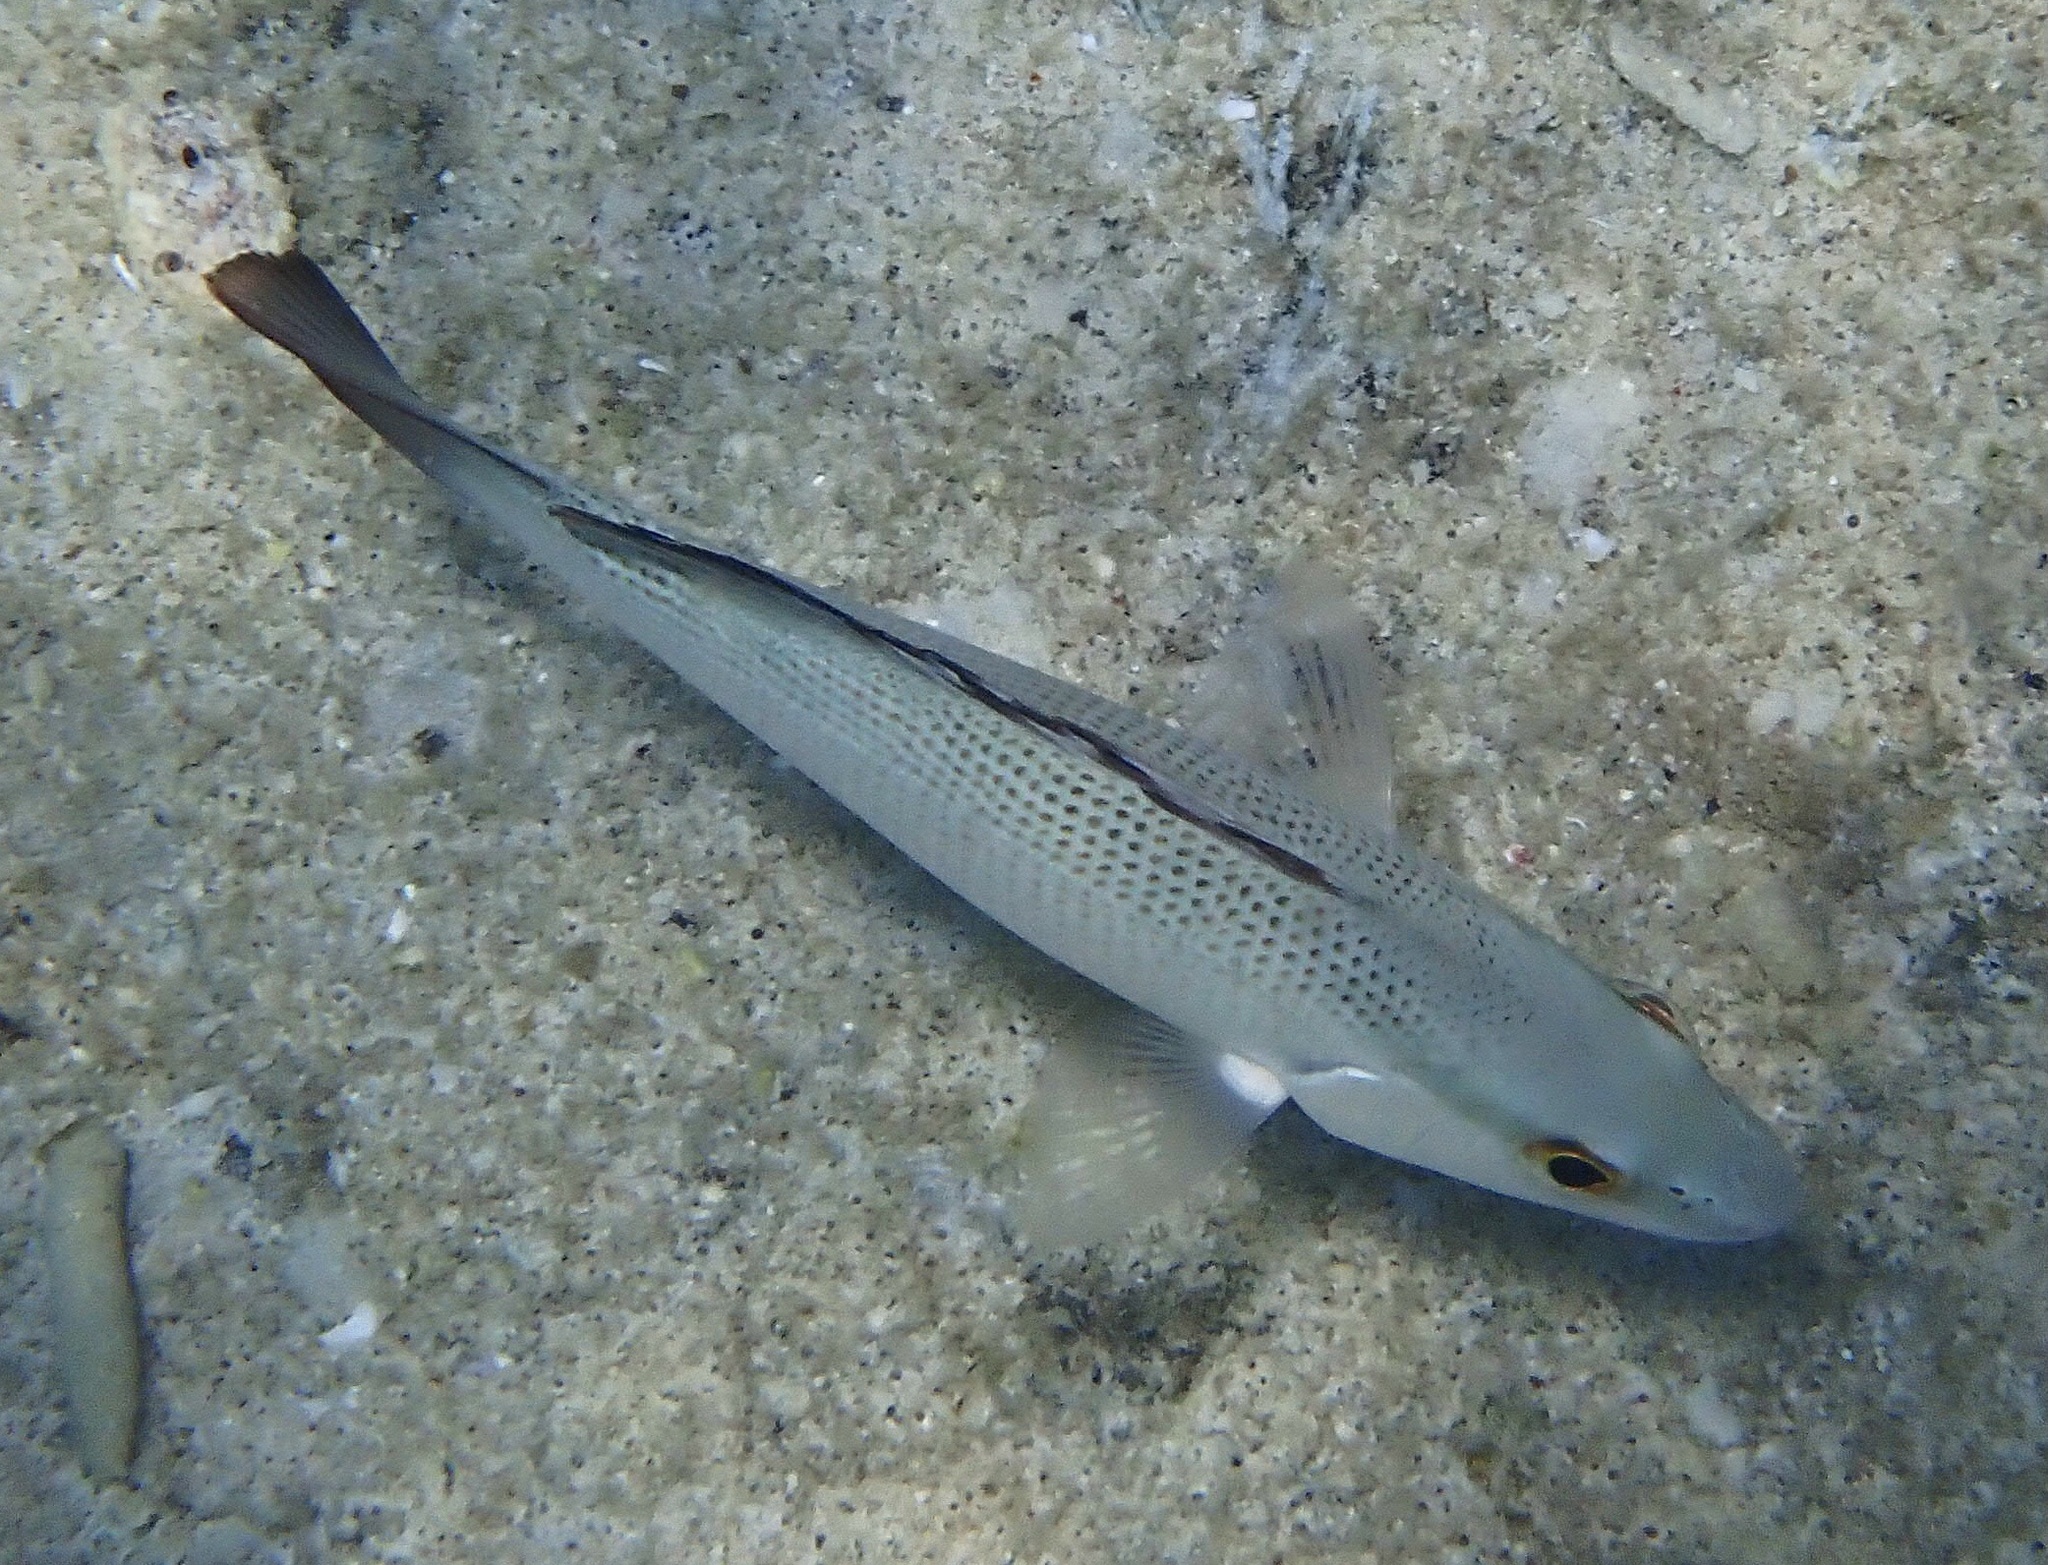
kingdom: Animalia
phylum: Chordata
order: Perciformes
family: Lutjanidae
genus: Lutjanus
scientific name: Lutjanus griseus
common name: Gray snapper
